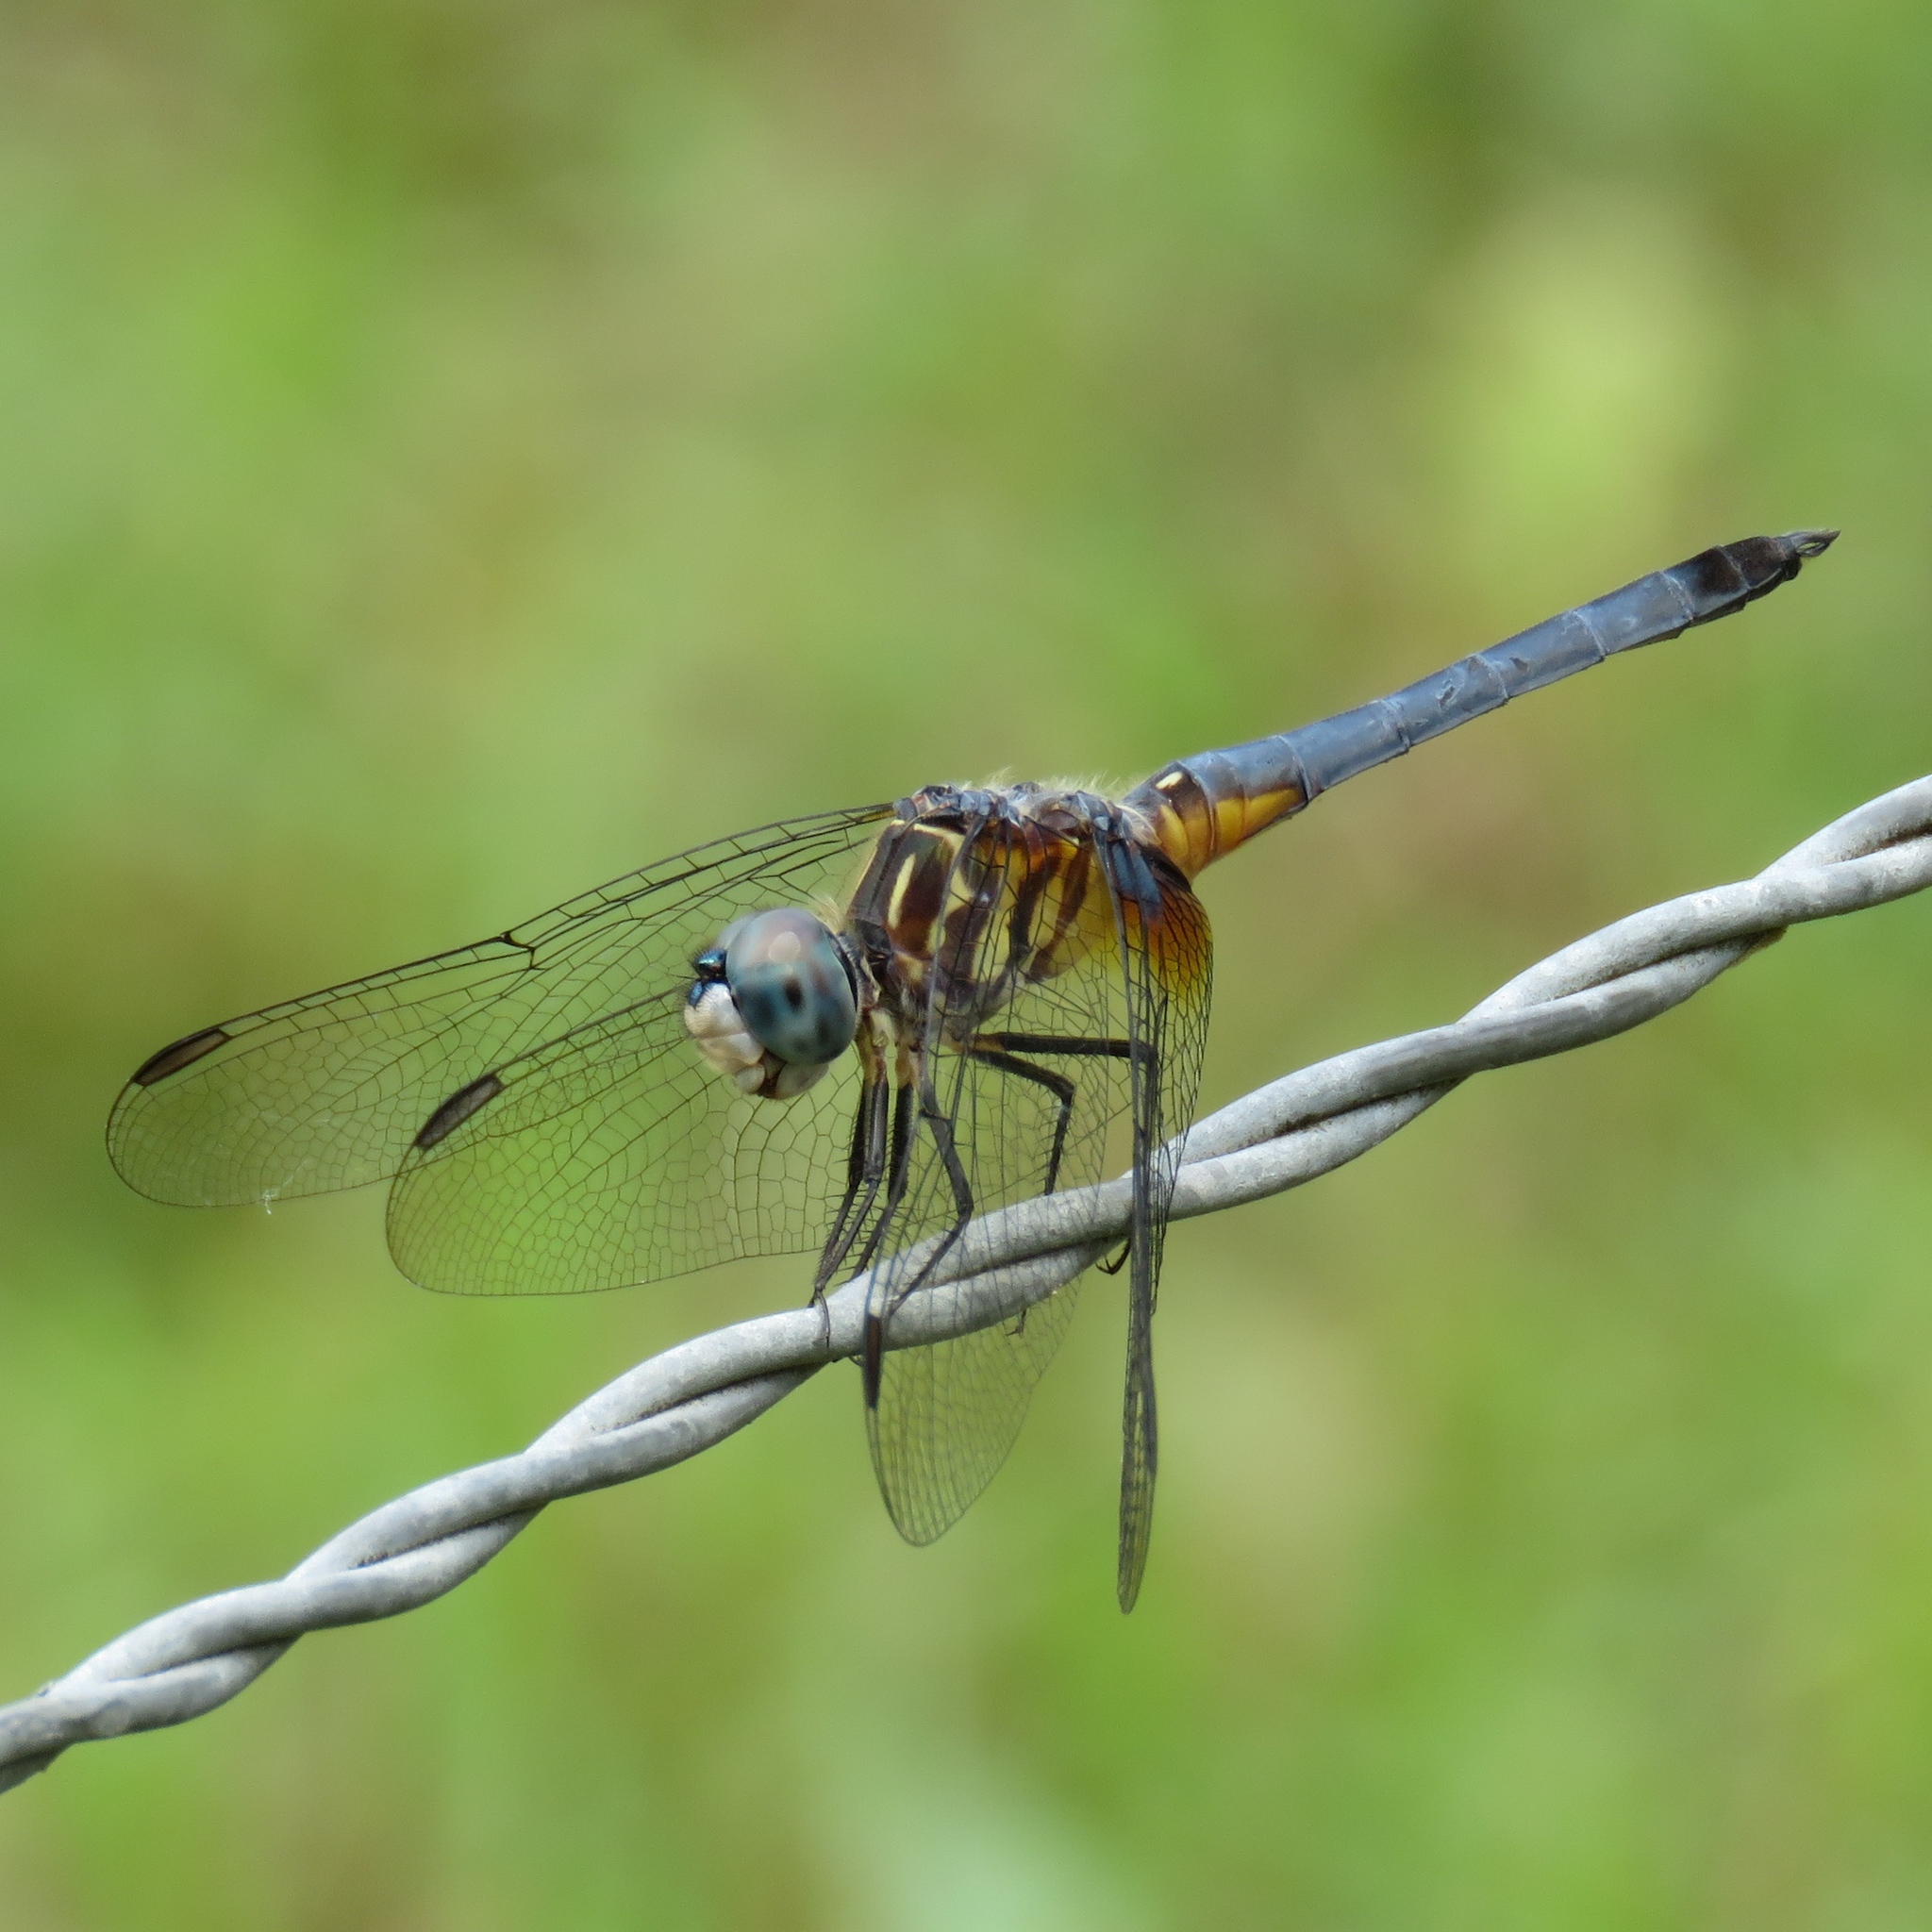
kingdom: Animalia
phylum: Arthropoda
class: Insecta
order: Odonata
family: Libellulidae
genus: Pachydiplax
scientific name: Pachydiplax longipennis
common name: Blue dasher
